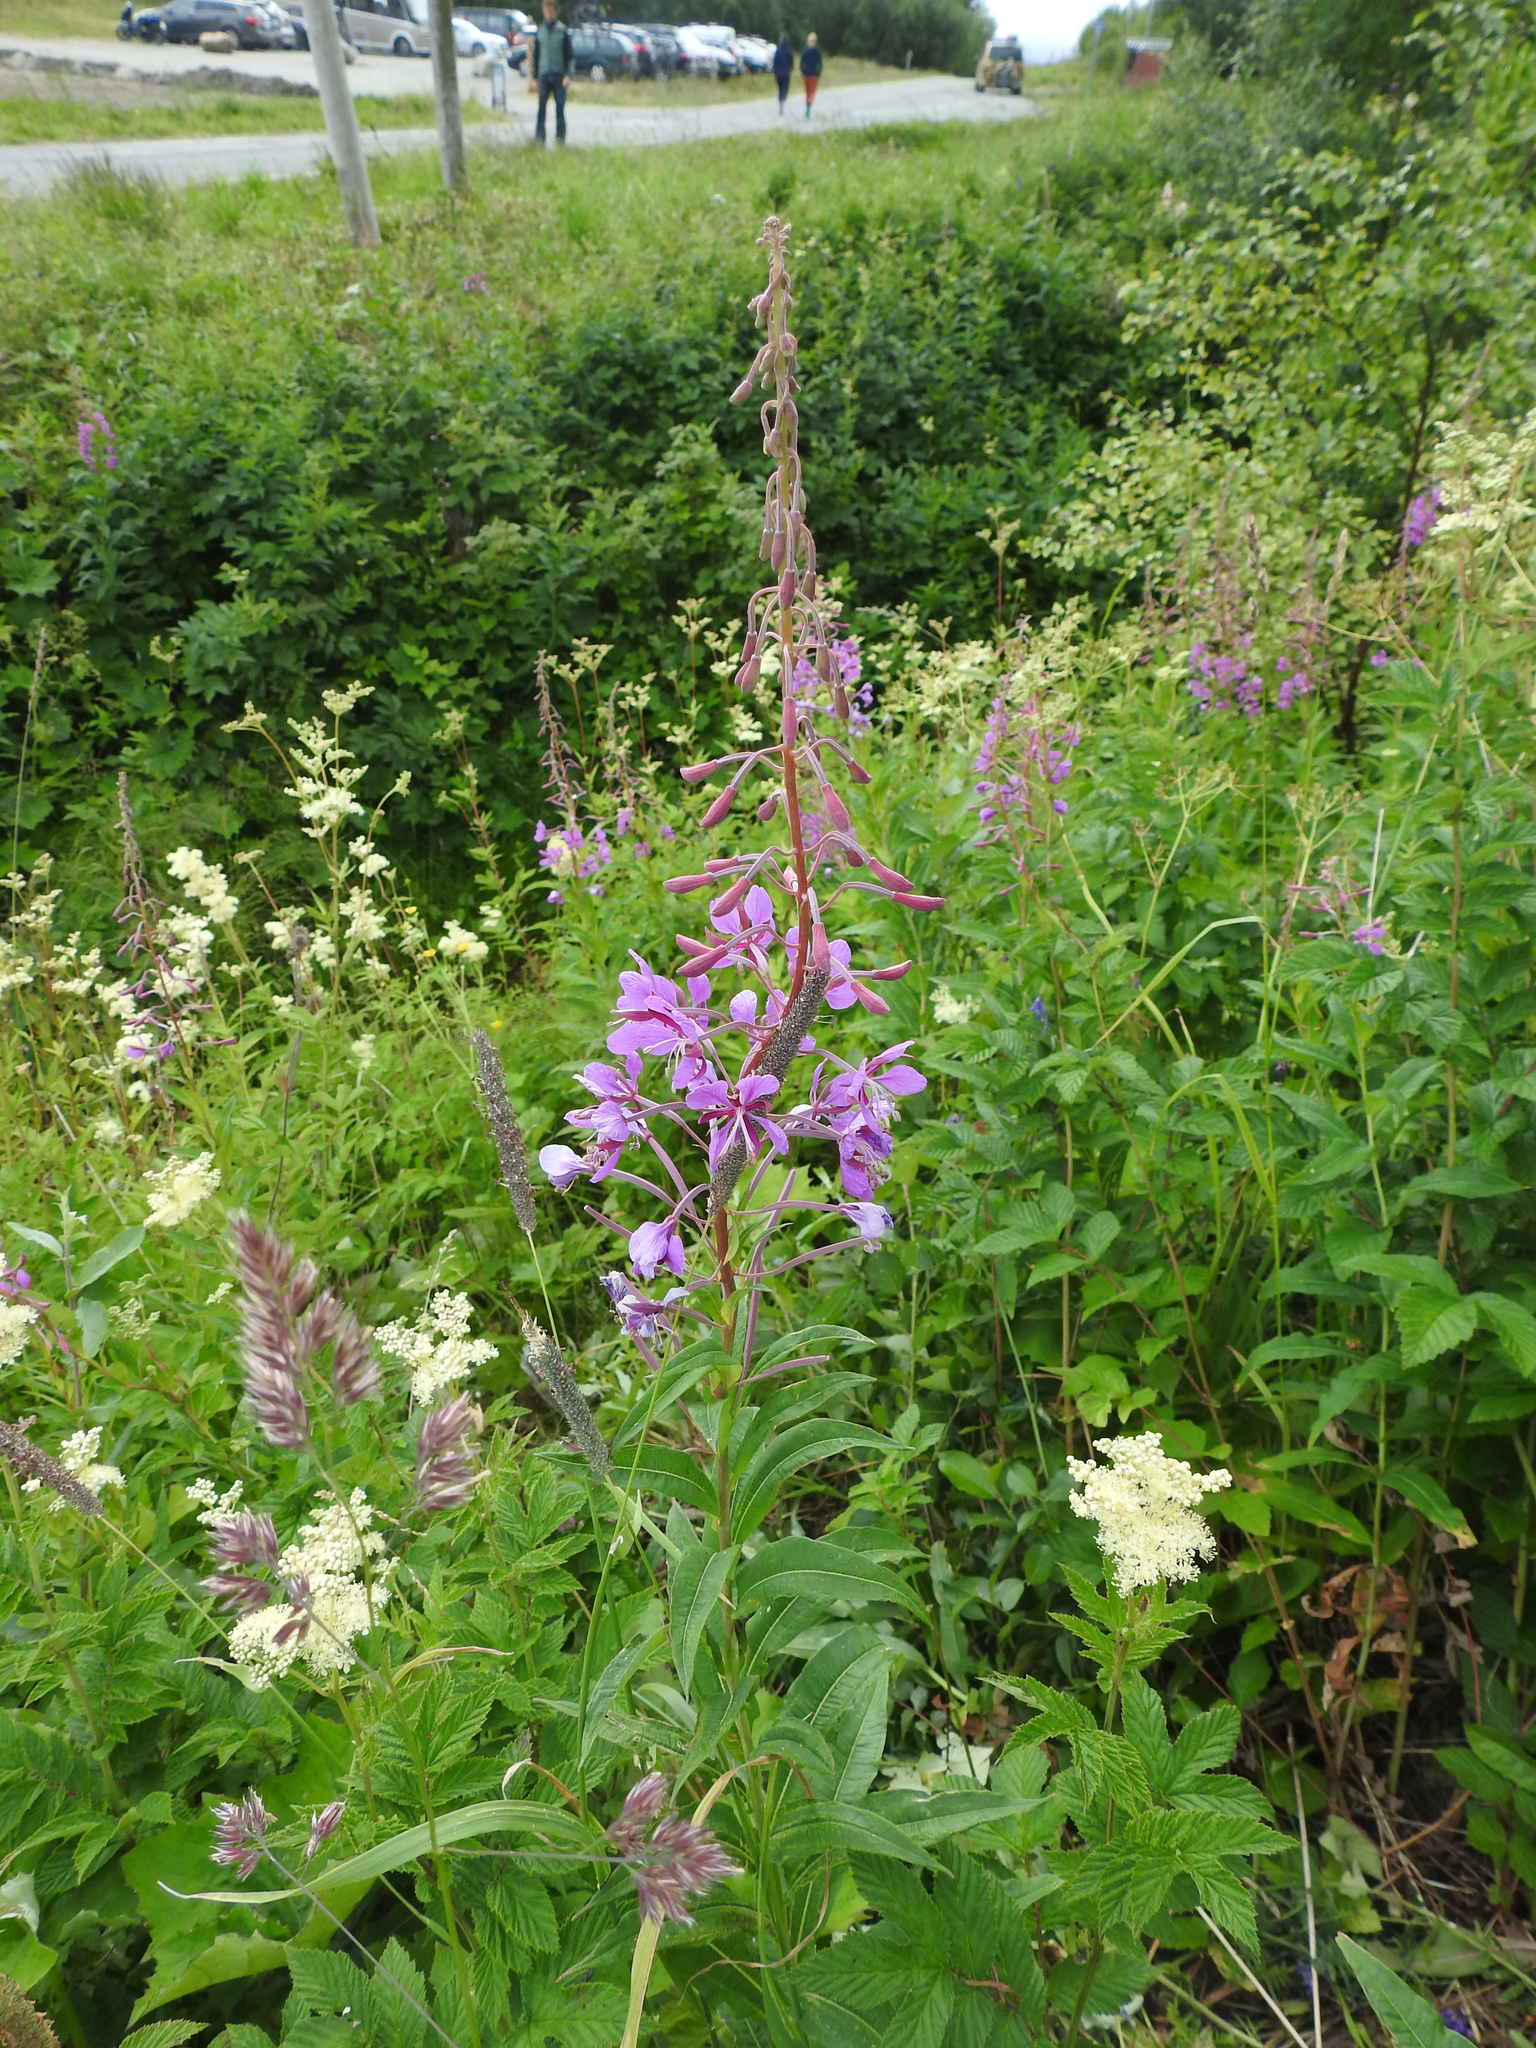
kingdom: Plantae
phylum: Tracheophyta
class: Magnoliopsida
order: Myrtales
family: Onagraceae
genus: Chamaenerion
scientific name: Chamaenerion angustifolium
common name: Fireweed
